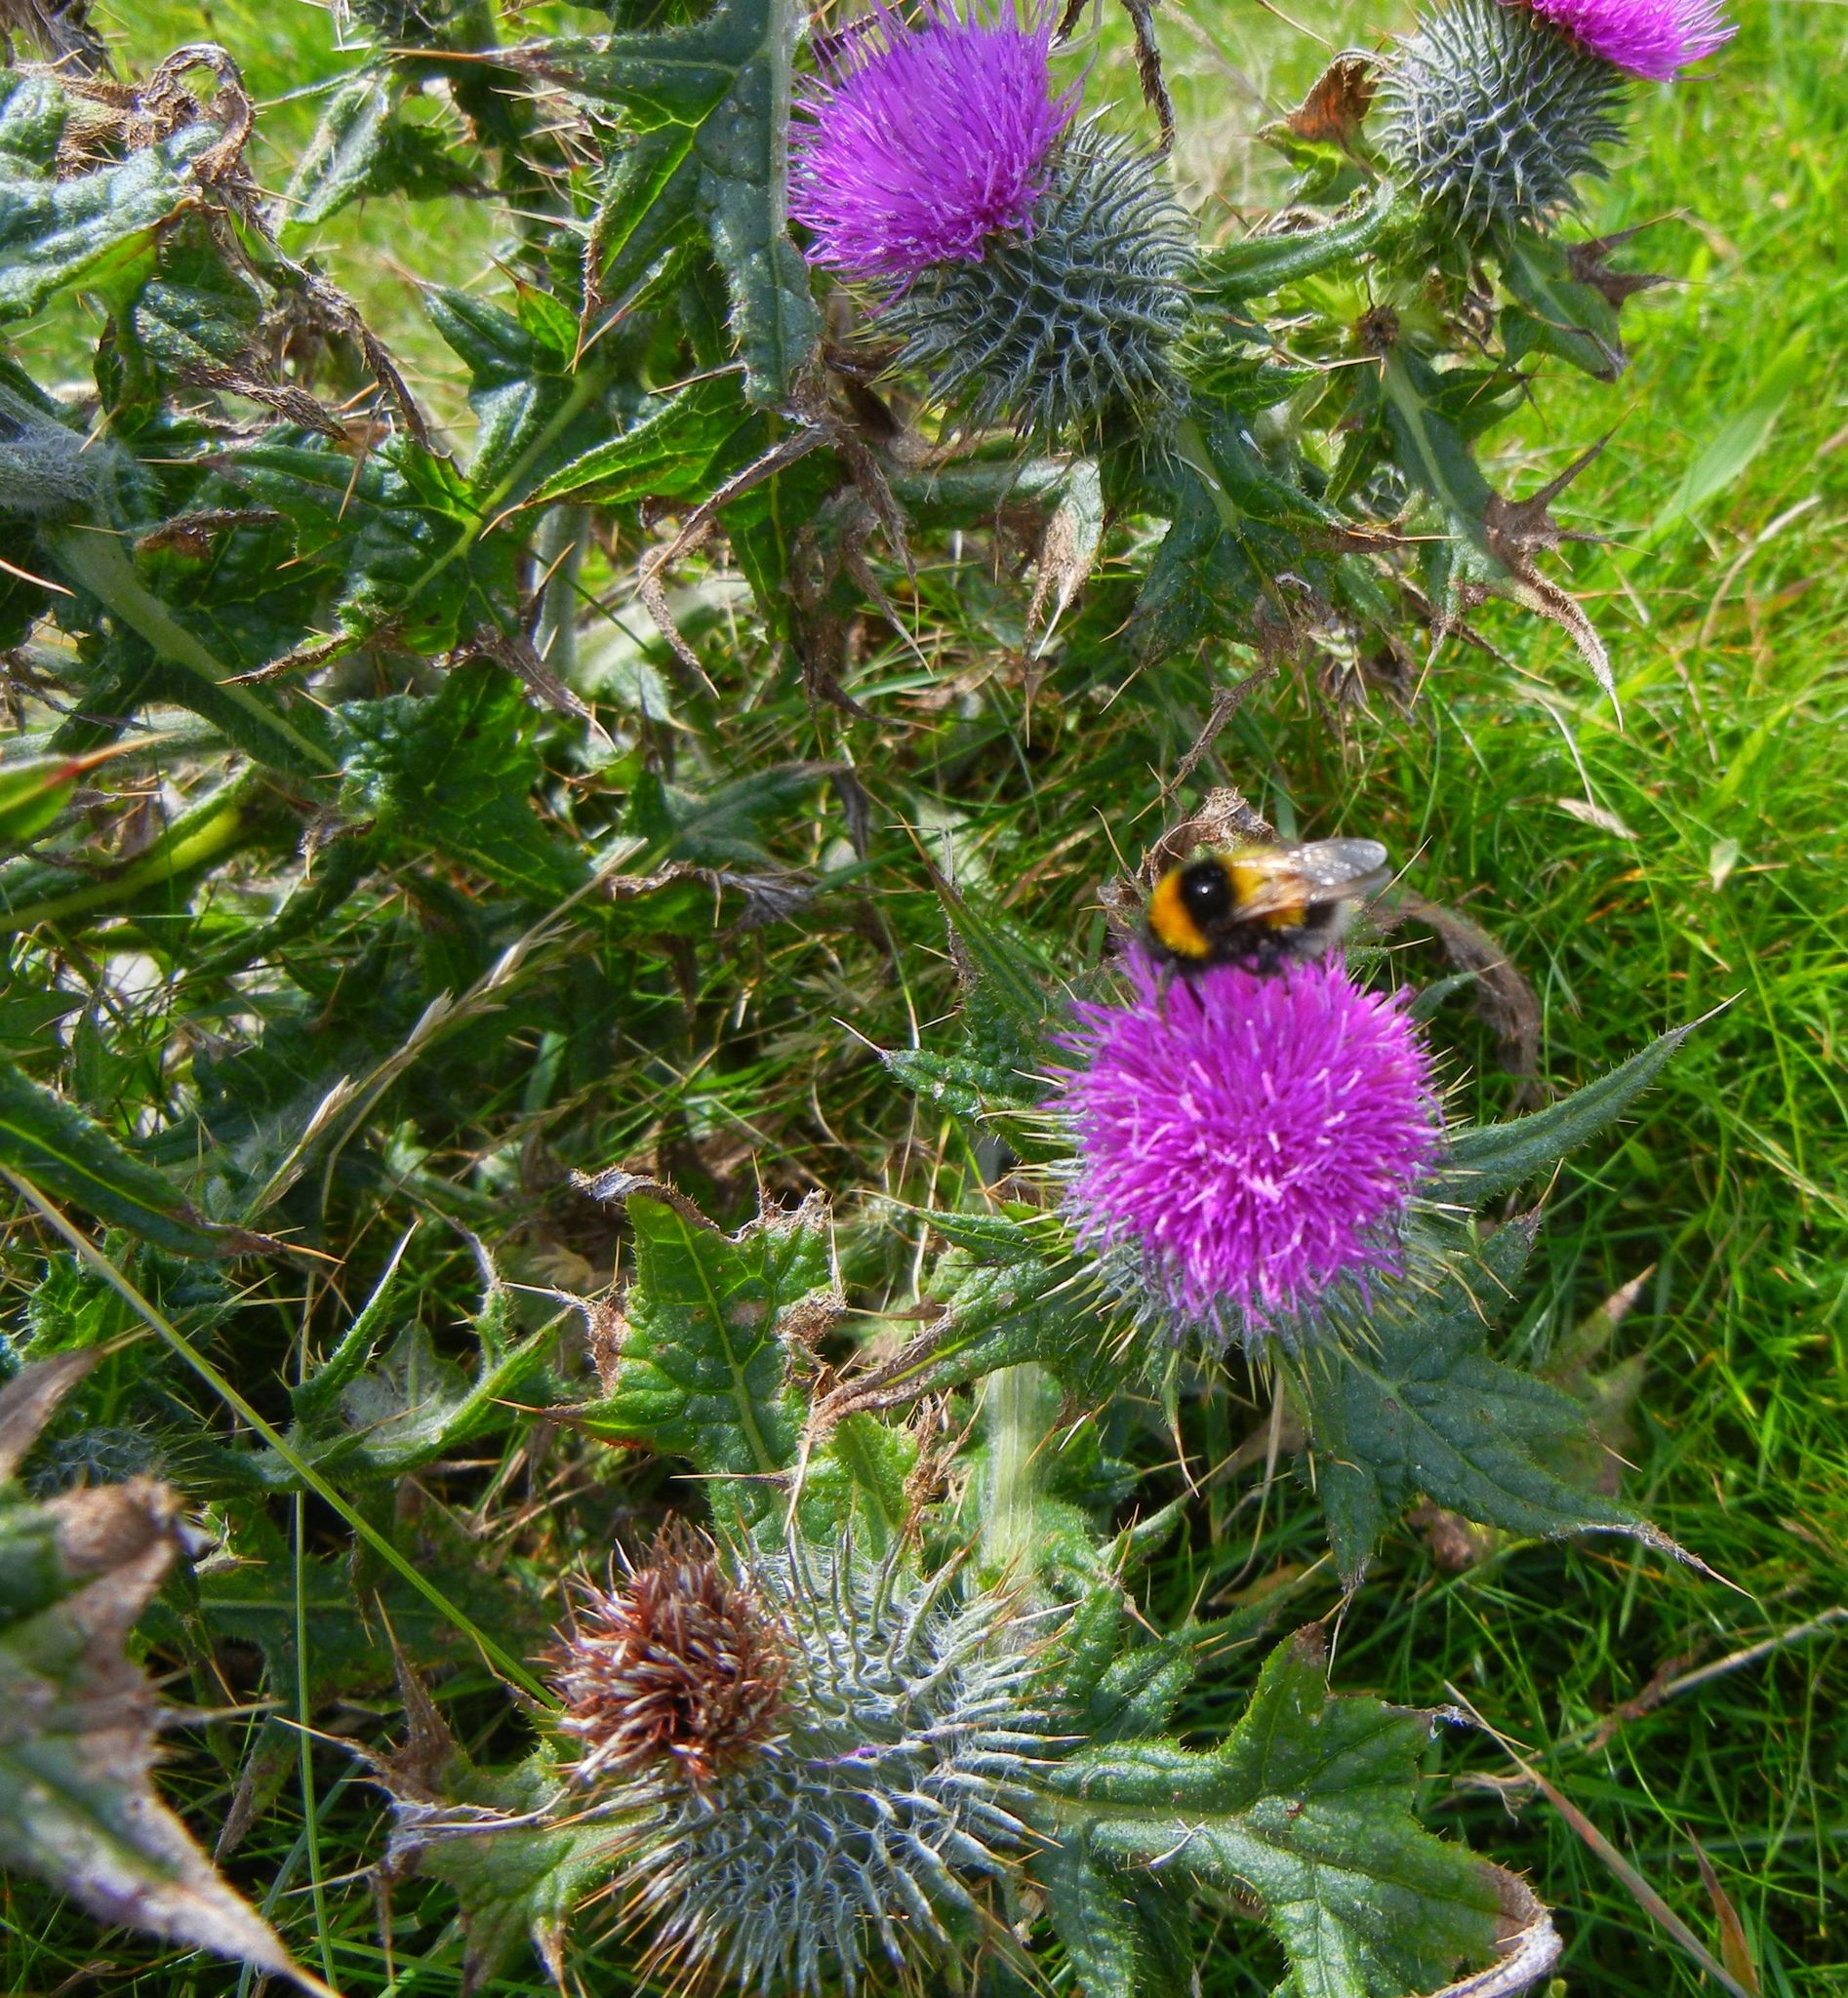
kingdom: Plantae
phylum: Tracheophyta
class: Magnoliopsida
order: Asterales
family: Asteraceae
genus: Cirsium
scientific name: Cirsium vulgare
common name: Bull thistle
